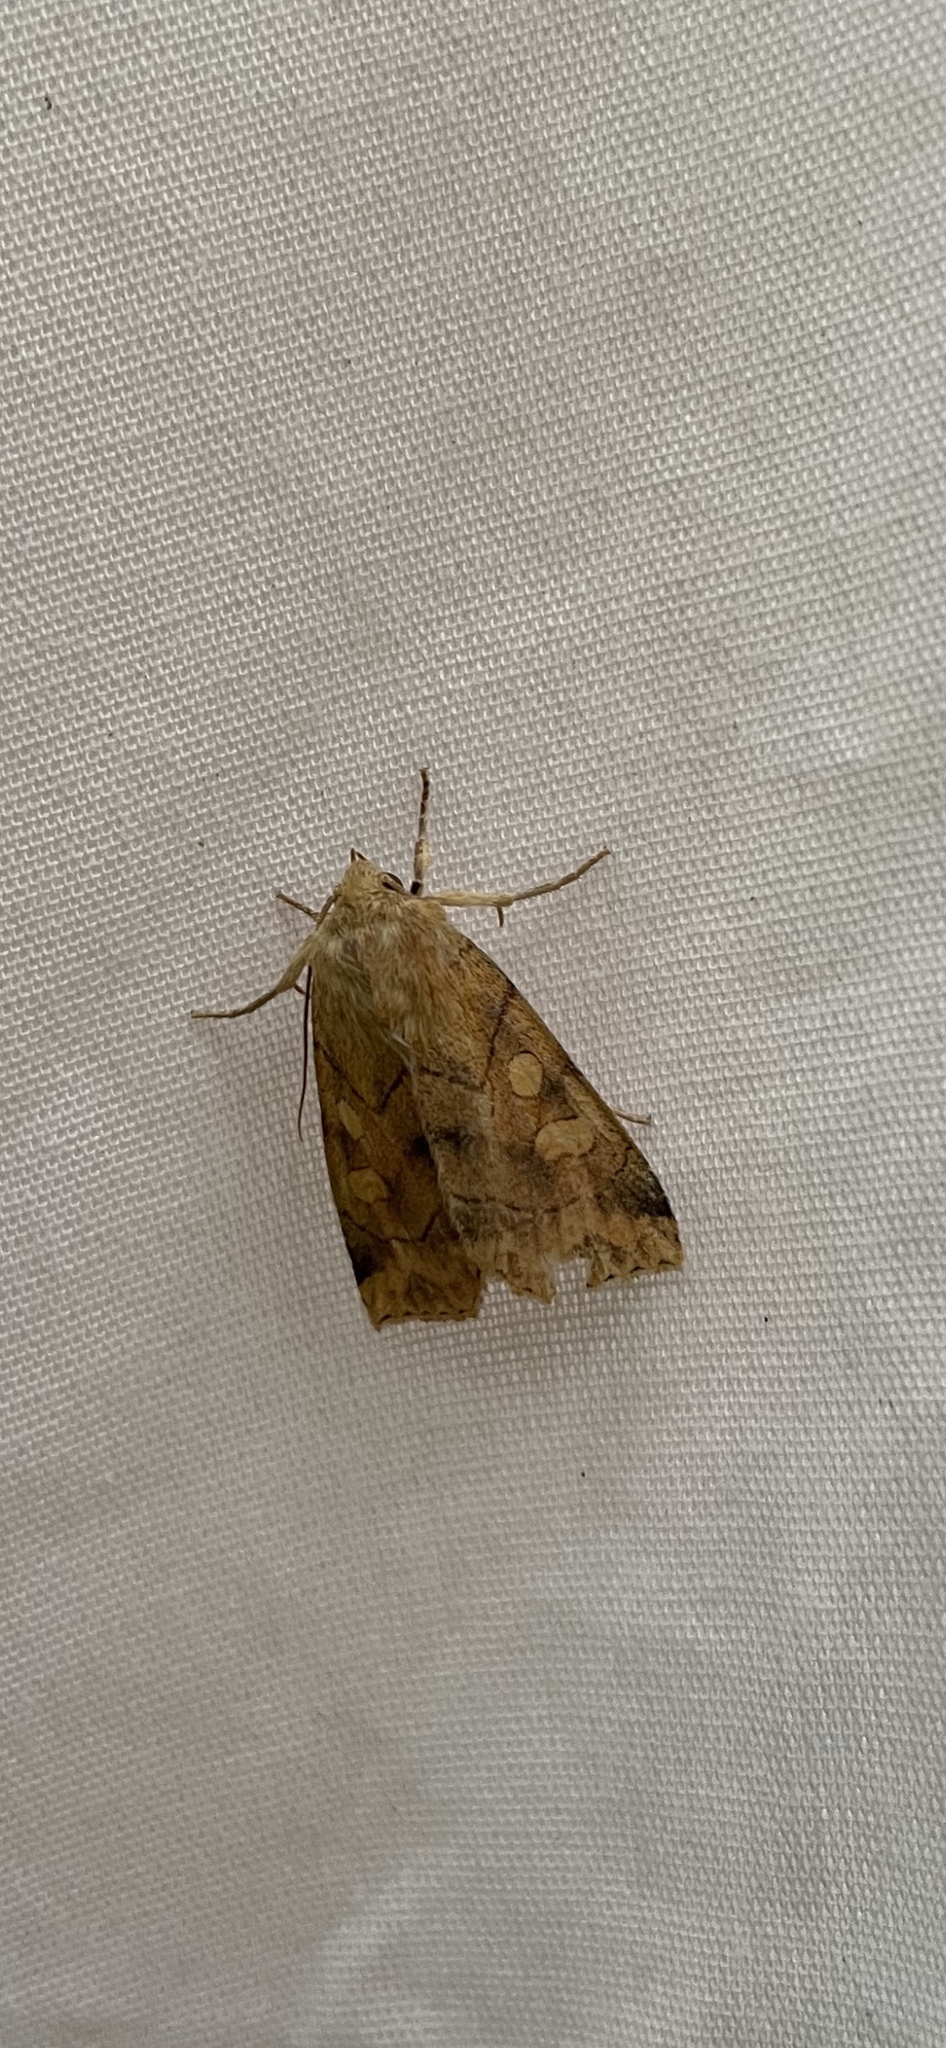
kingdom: Animalia
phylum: Arthropoda
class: Insecta
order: Lepidoptera
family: Noctuidae
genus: Enargia
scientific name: Enargia decolor
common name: Aspen twoleaf tier moth
